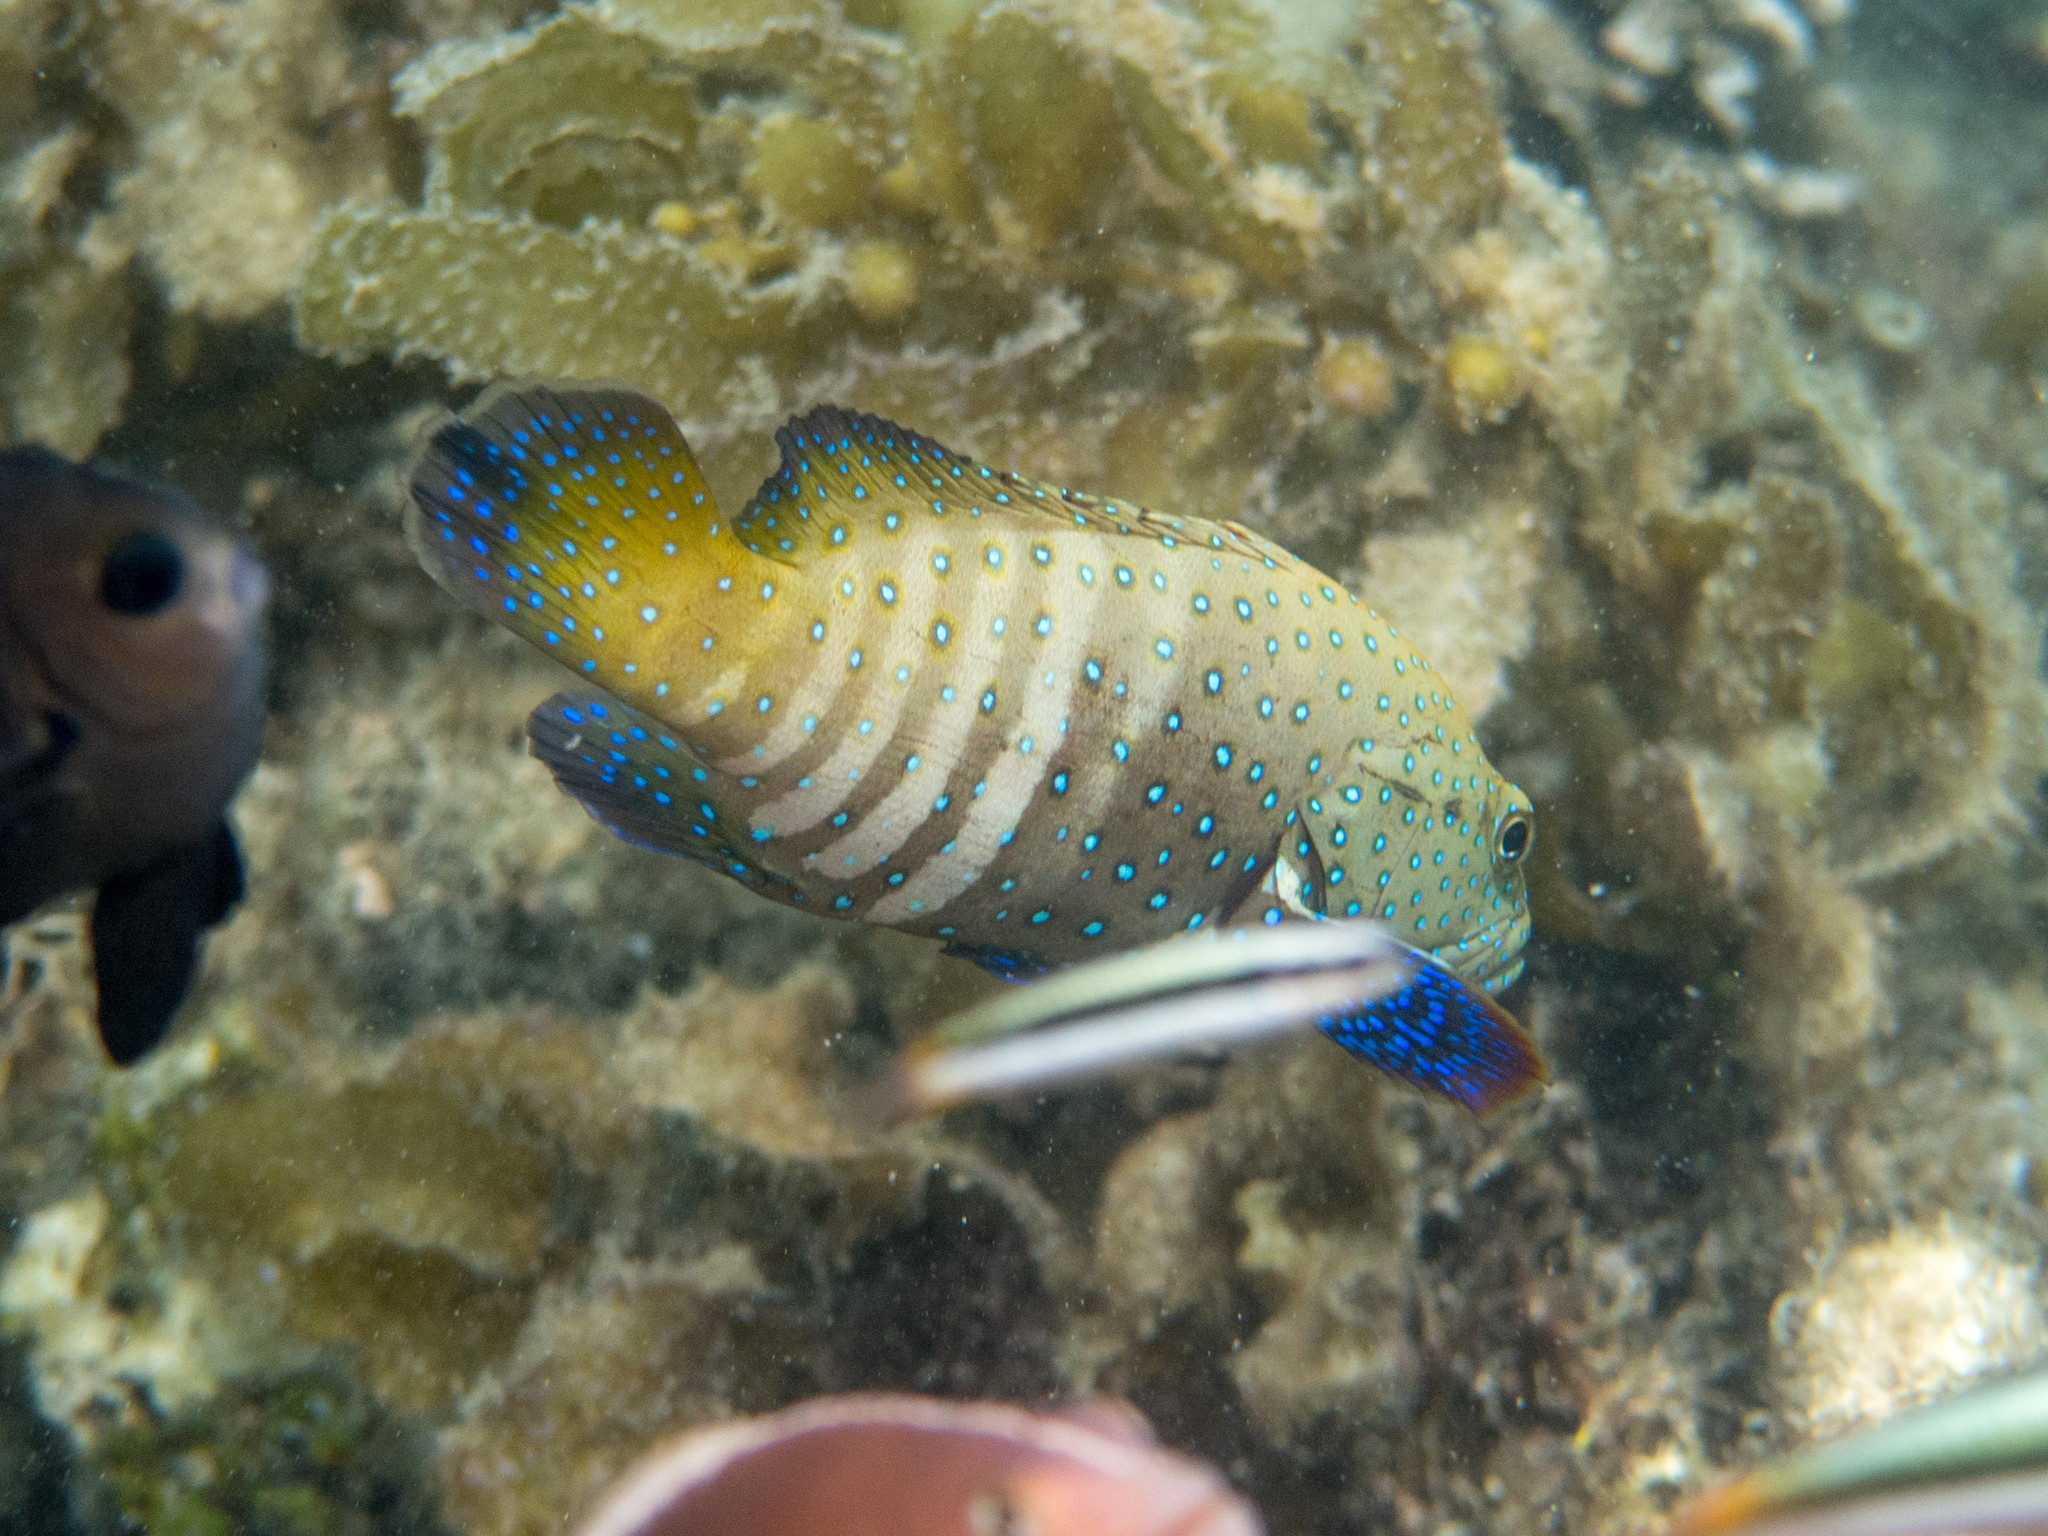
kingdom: Animalia
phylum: Chordata
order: Perciformes
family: Serranidae
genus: Cephalopholis
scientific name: Cephalopholis argus
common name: Peacock grouper
